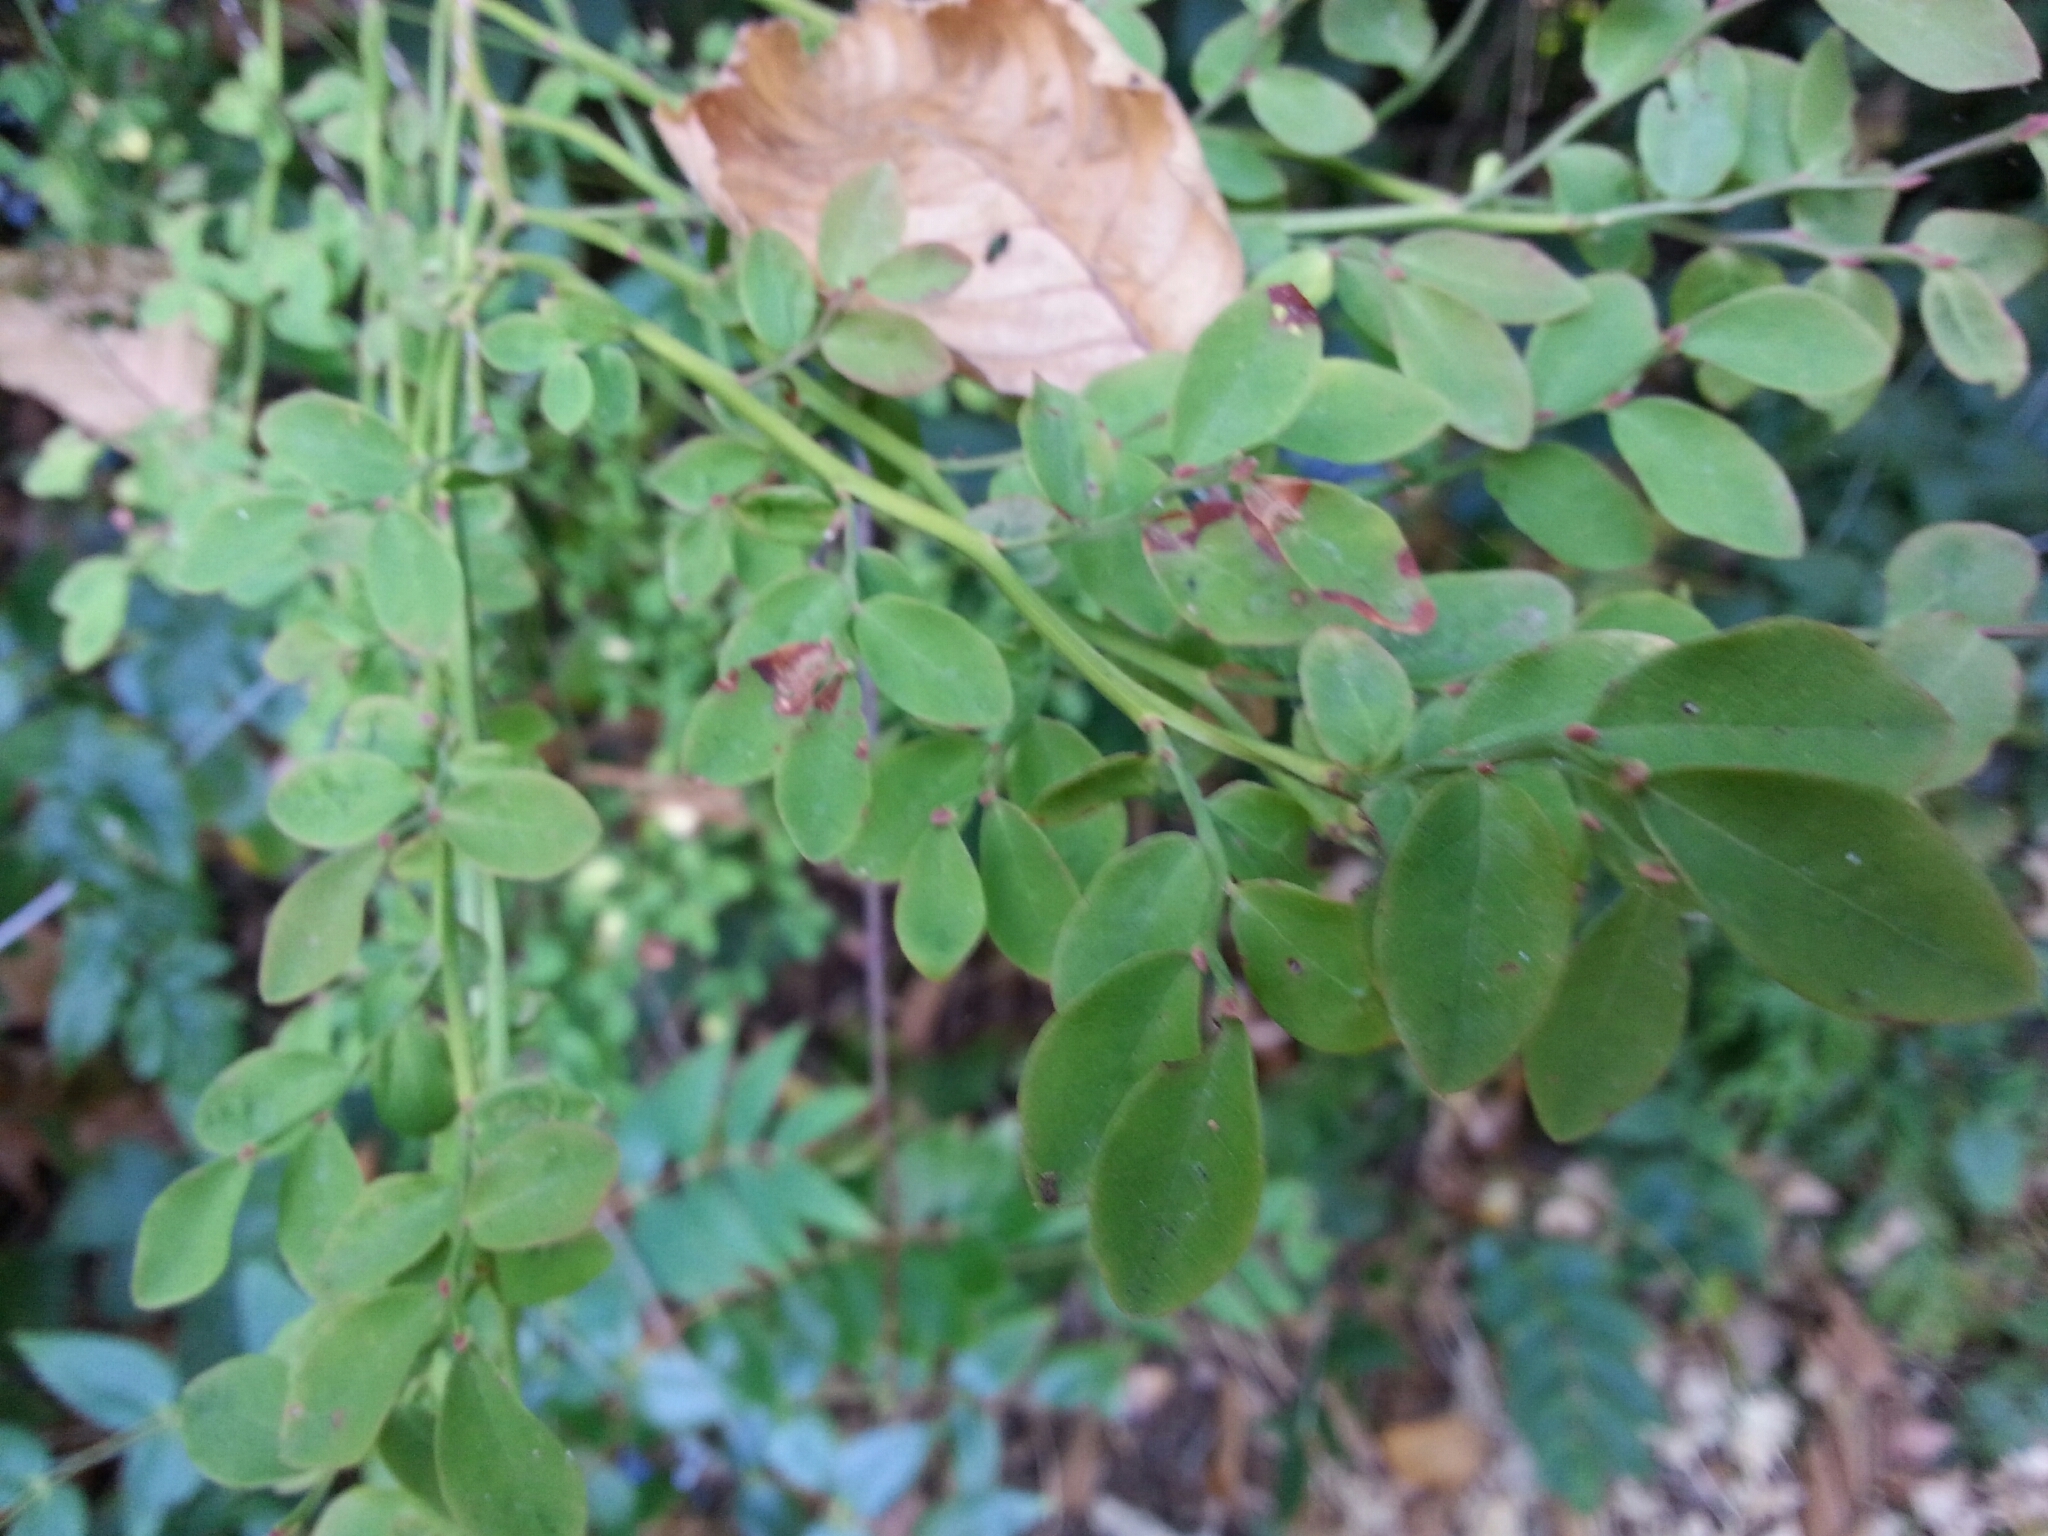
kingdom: Plantae
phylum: Tracheophyta
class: Magnoliopsida
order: Ericales
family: Ericaceae
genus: Vaccinium
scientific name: Vaccinium parvifolium
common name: Red-huckleberry
